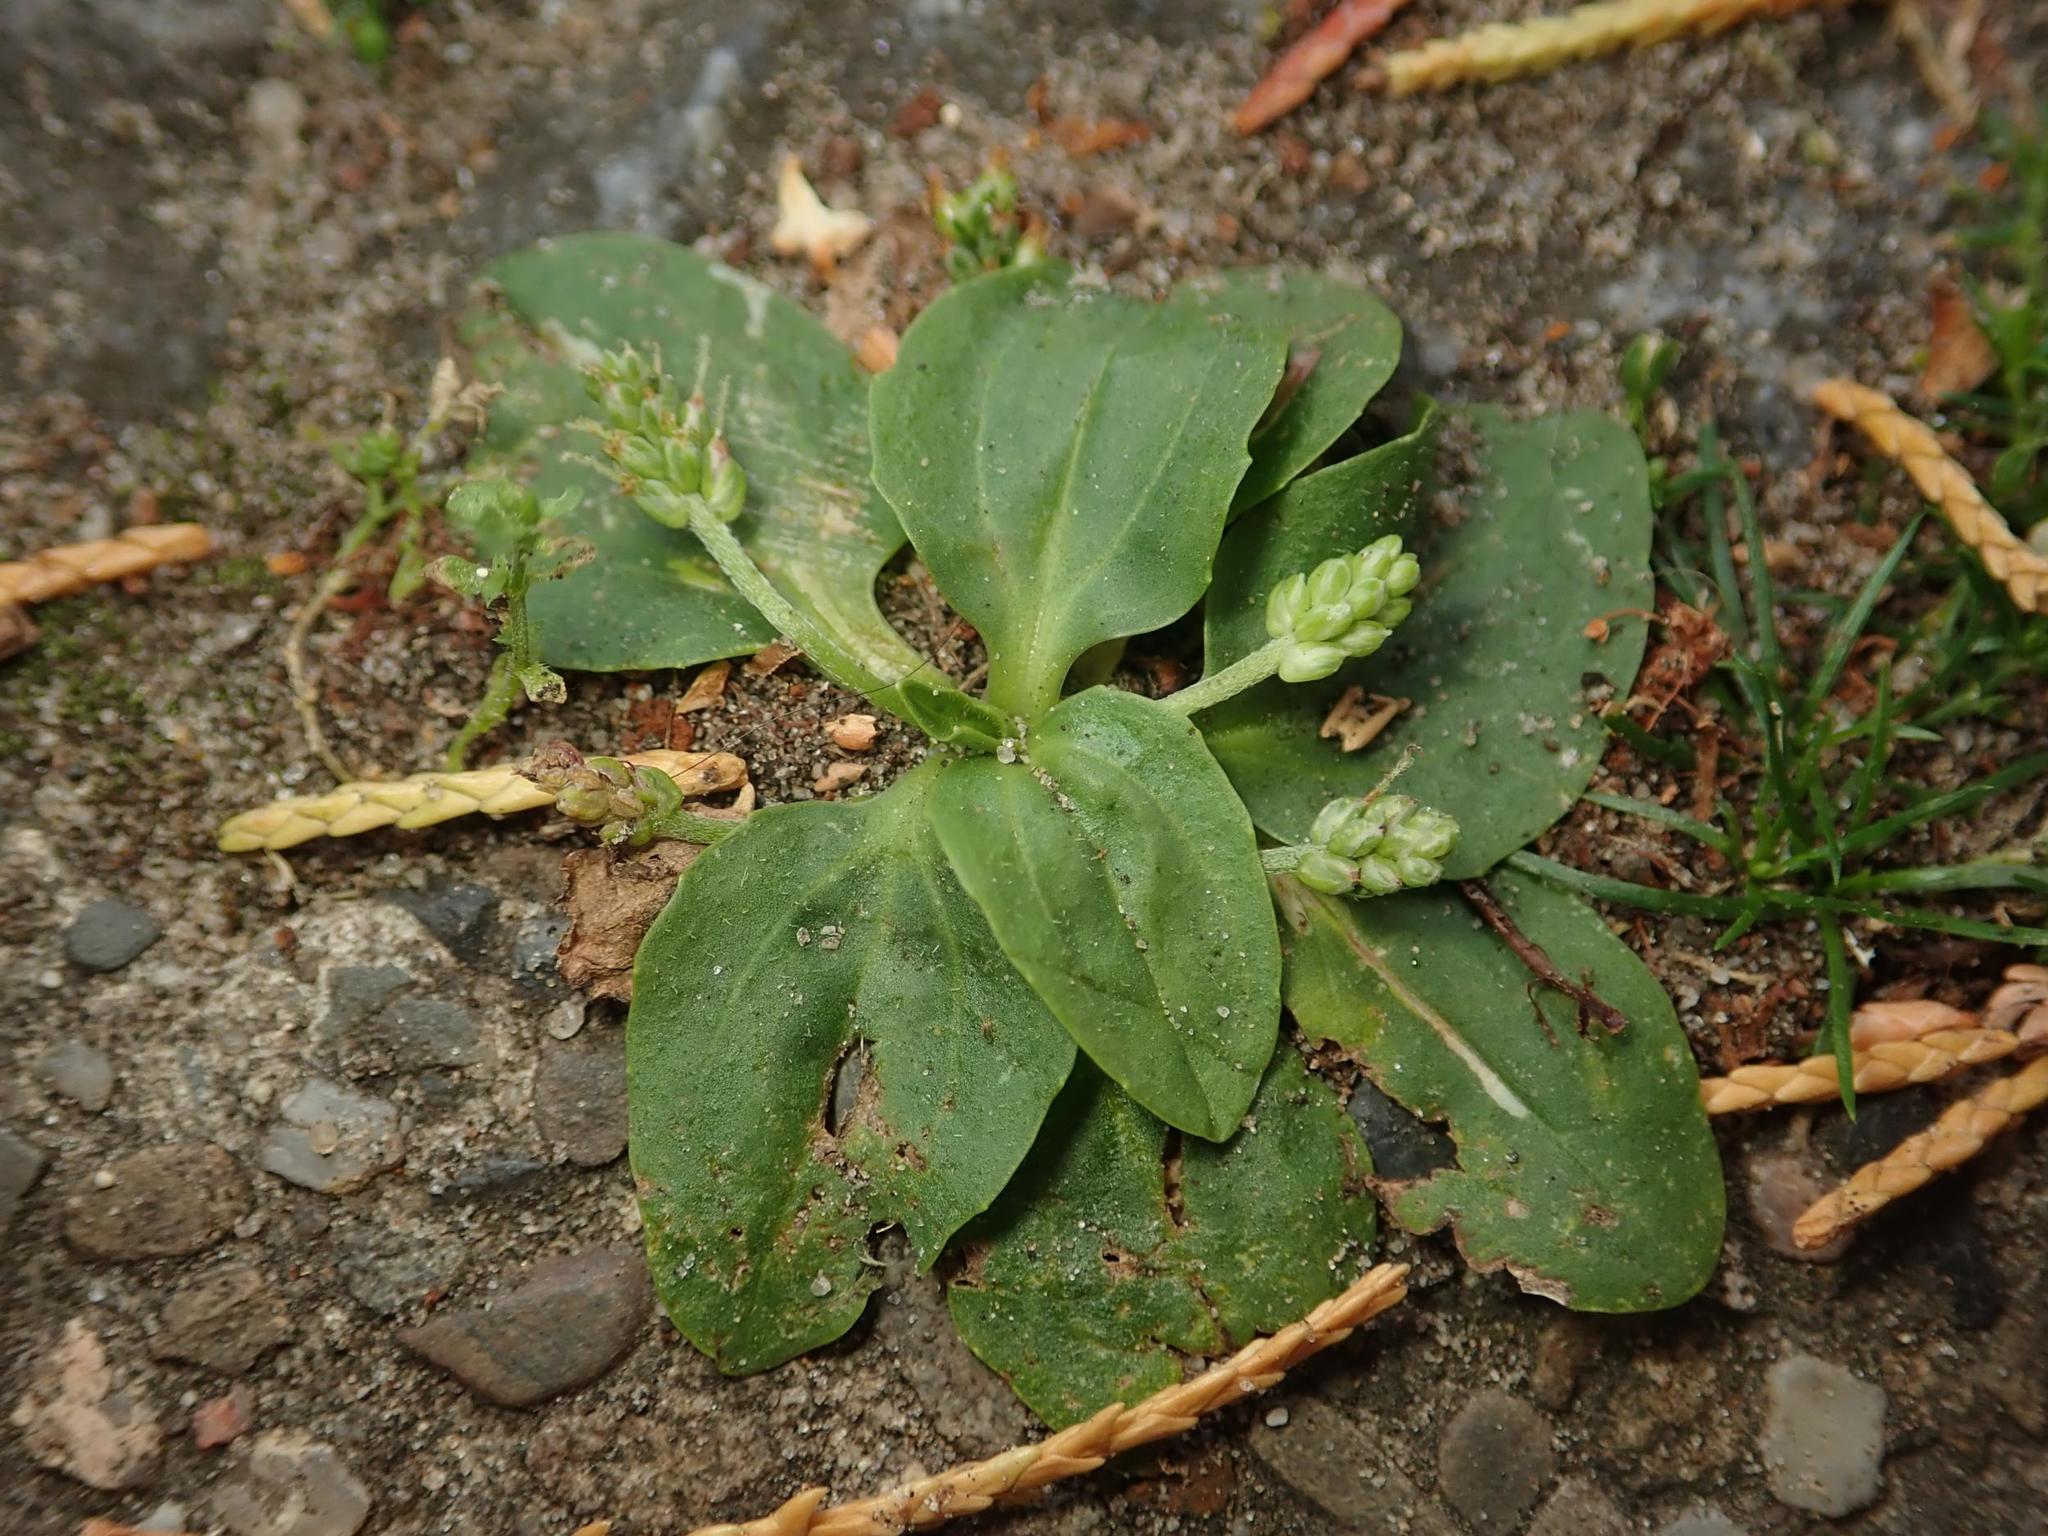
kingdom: Plantae
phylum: Tracheophyta
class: Magnoliopsida
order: Lamiales
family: Plantaginaceae
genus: Plantago
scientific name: Plantago major
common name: Common plantain
